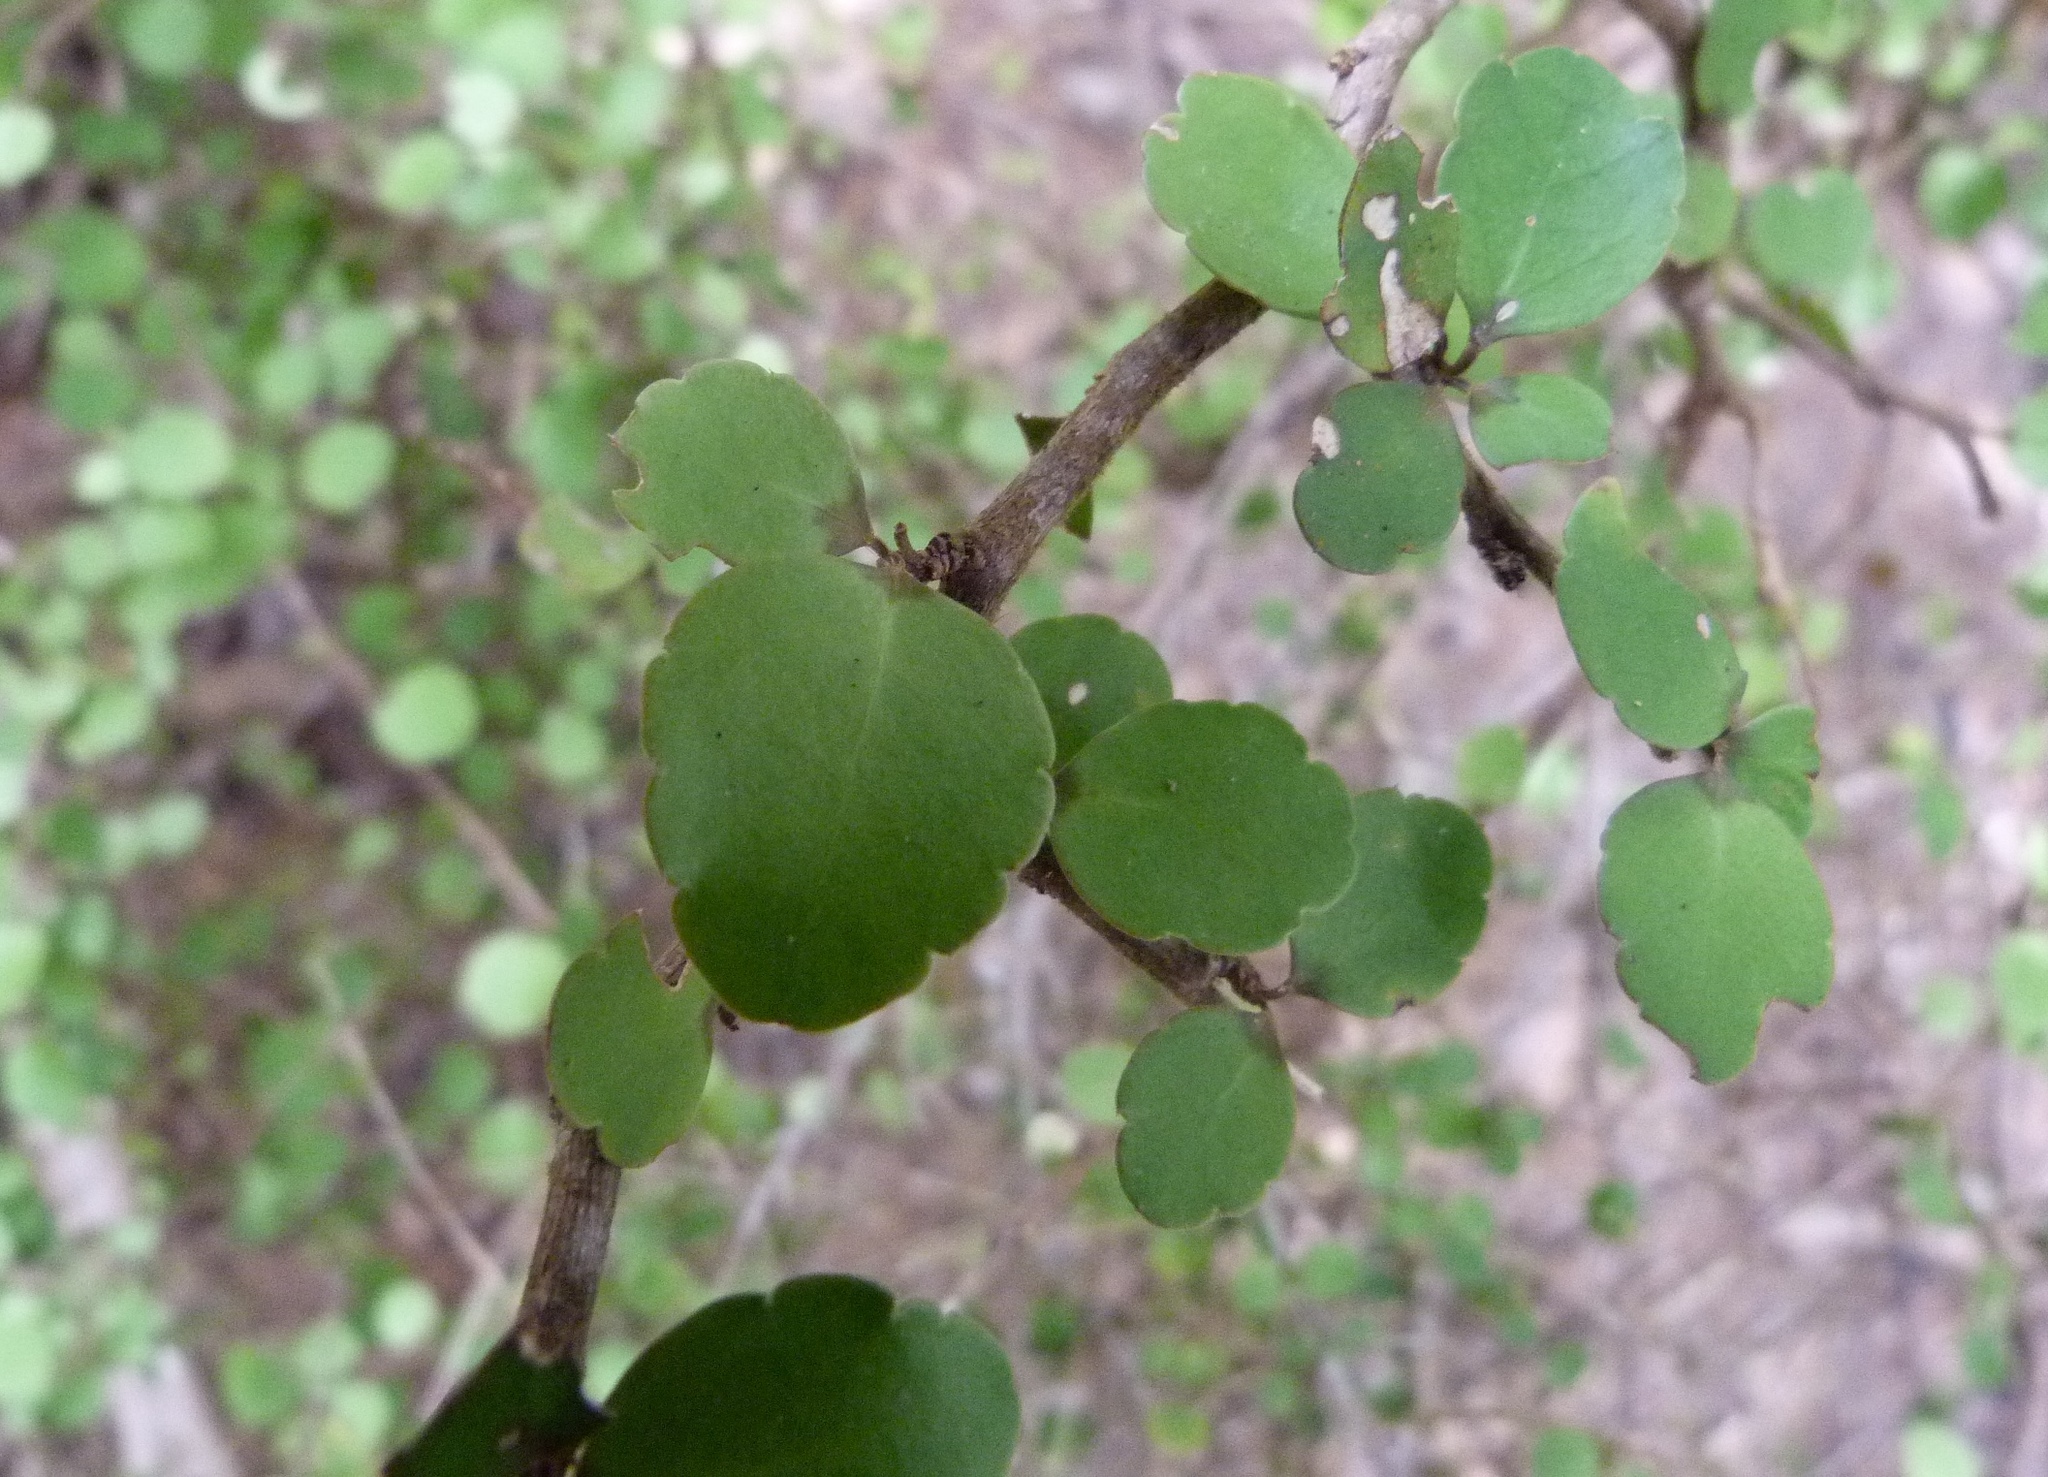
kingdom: Plantae
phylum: Tracheophyta
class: Magnoliopsida
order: Apiales
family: Araliaceae
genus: Raukaua
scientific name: Raukaua anomalus
